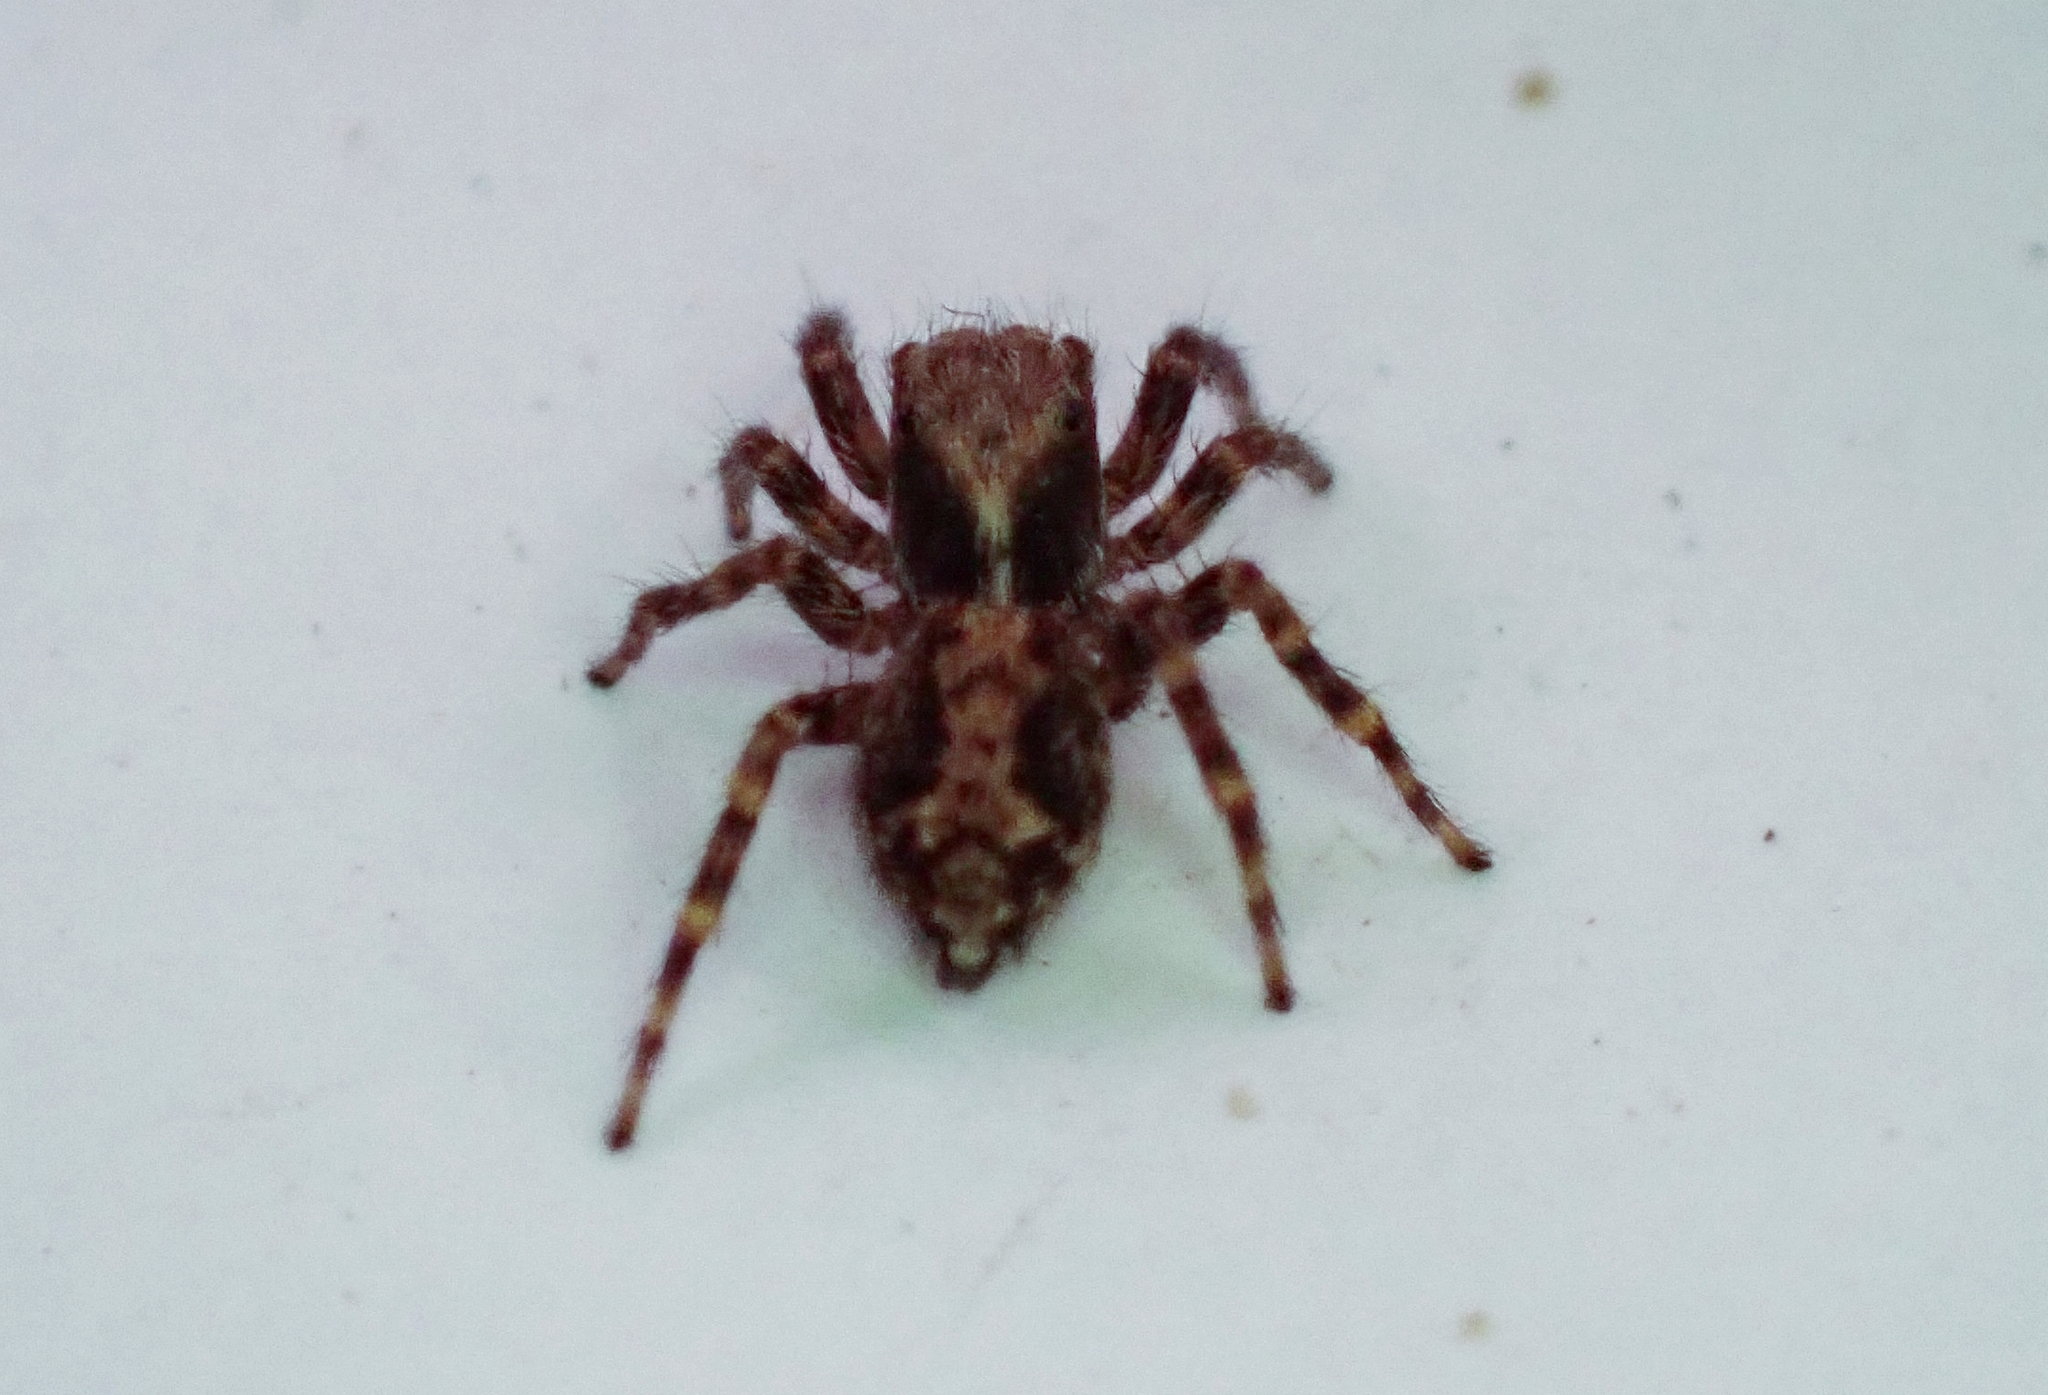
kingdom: Animalia
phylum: Arthropoda
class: Arachnida
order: Araneae
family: Salticidae
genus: Pseudeuophrys
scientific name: Pseudeuophrys lanigera
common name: Jumping spider
